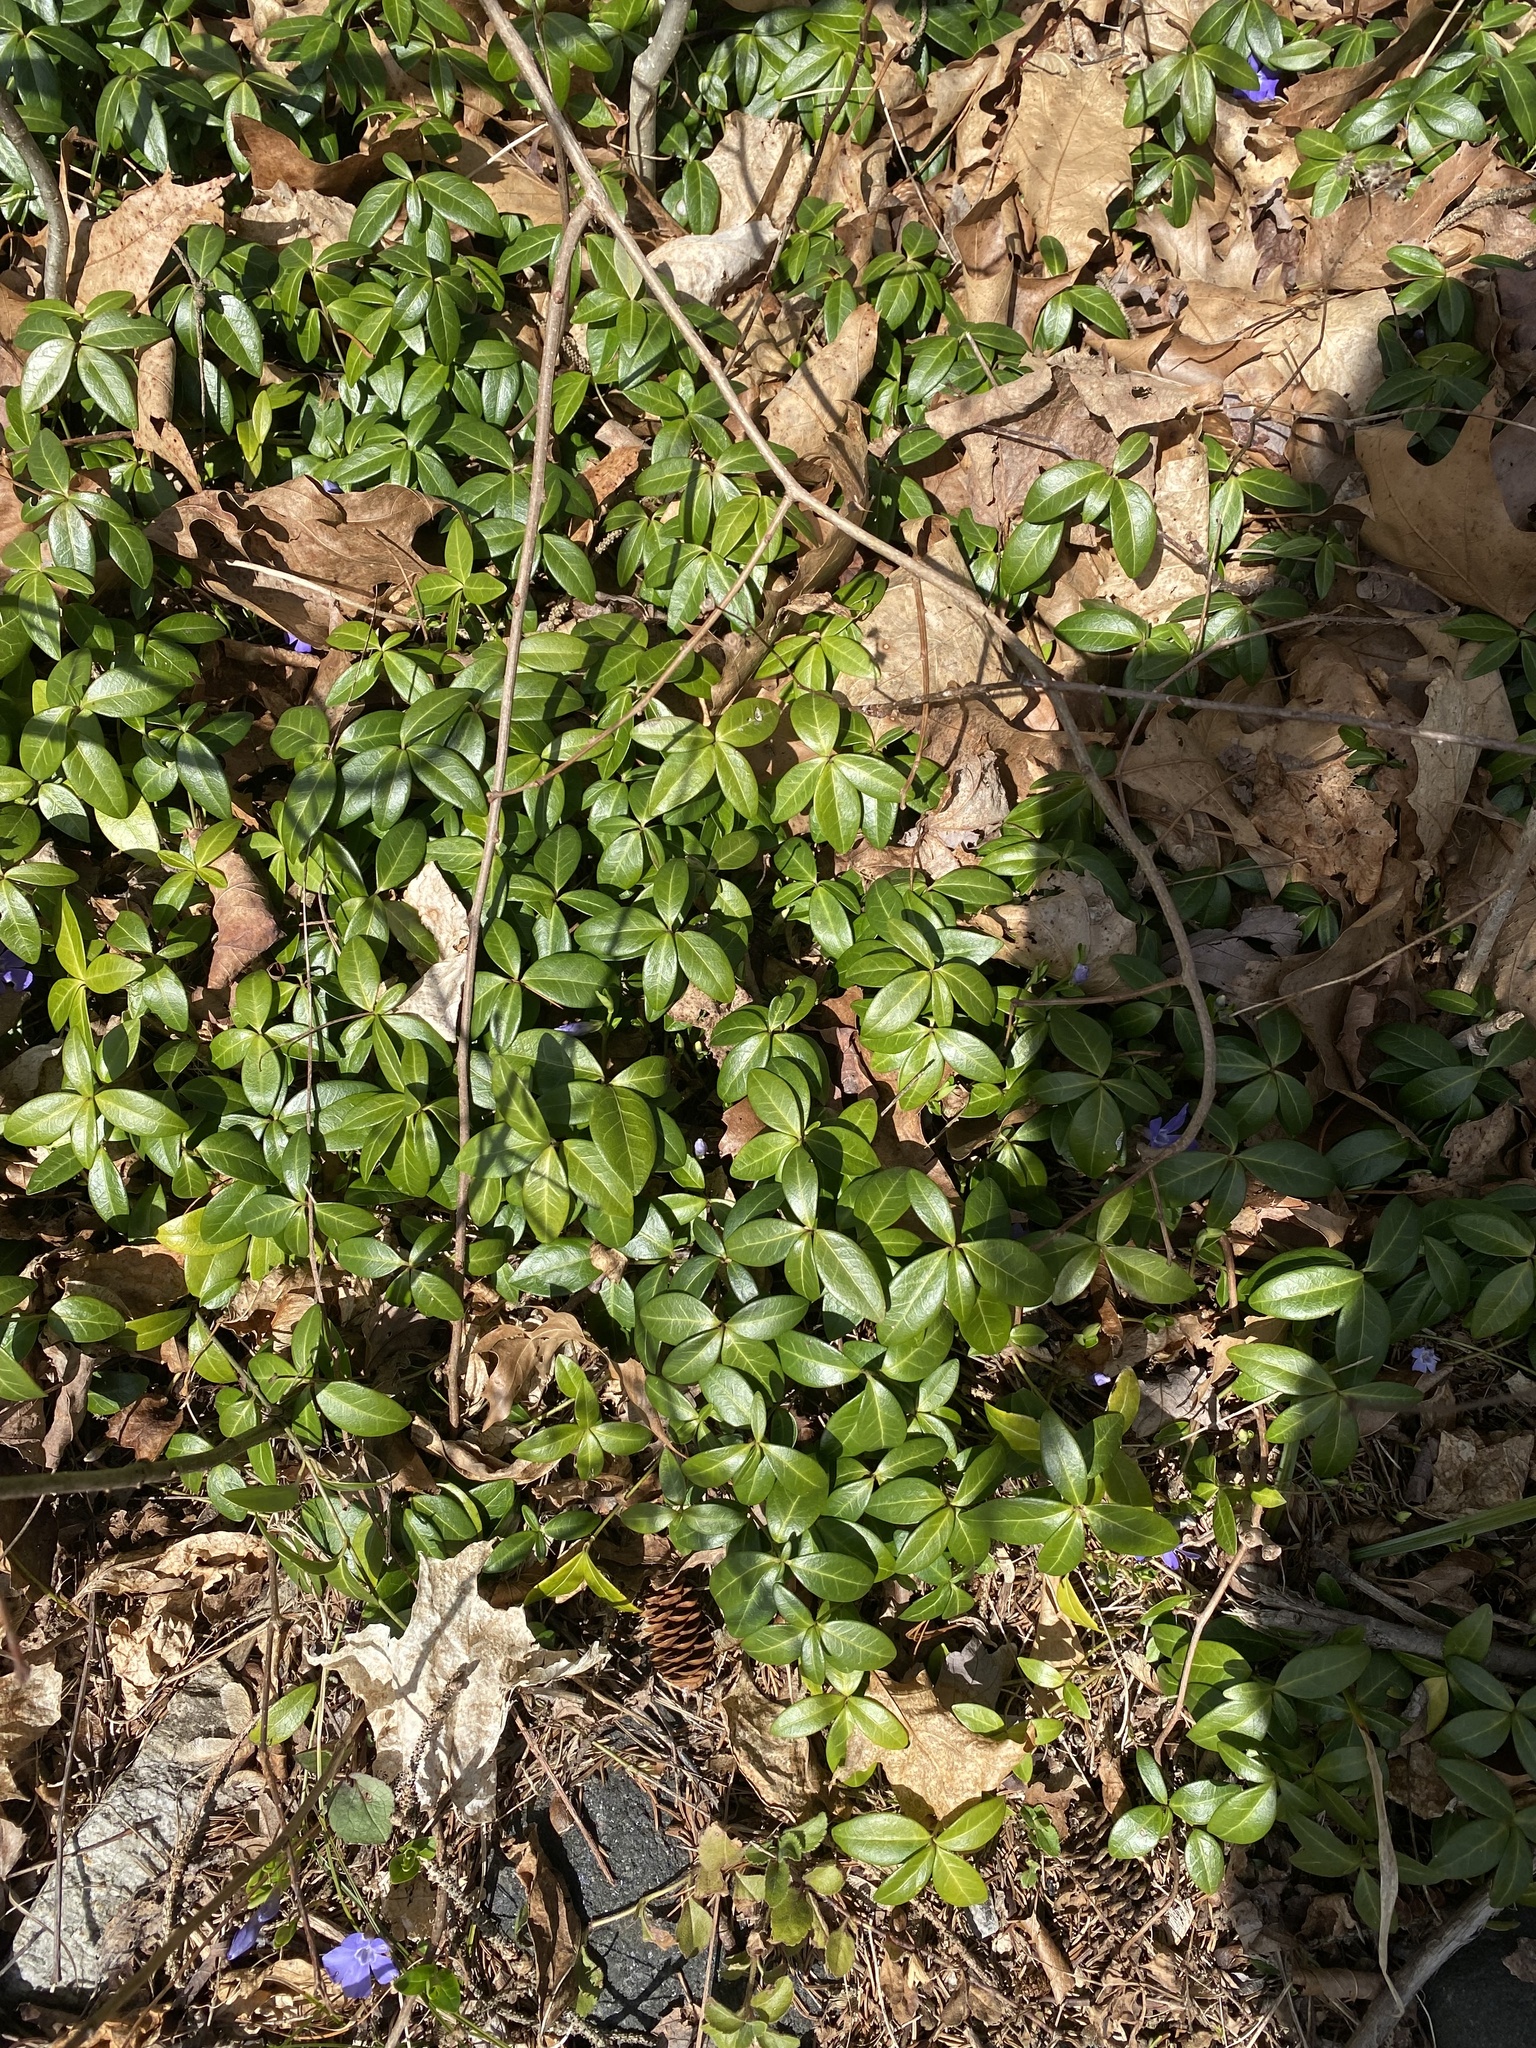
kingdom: Plantae
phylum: Tracheophyta
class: Magnoliopsida
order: Gentianales
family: Apocynaceae
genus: Vinca
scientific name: Vinca minor
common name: Lesser periwinkle
